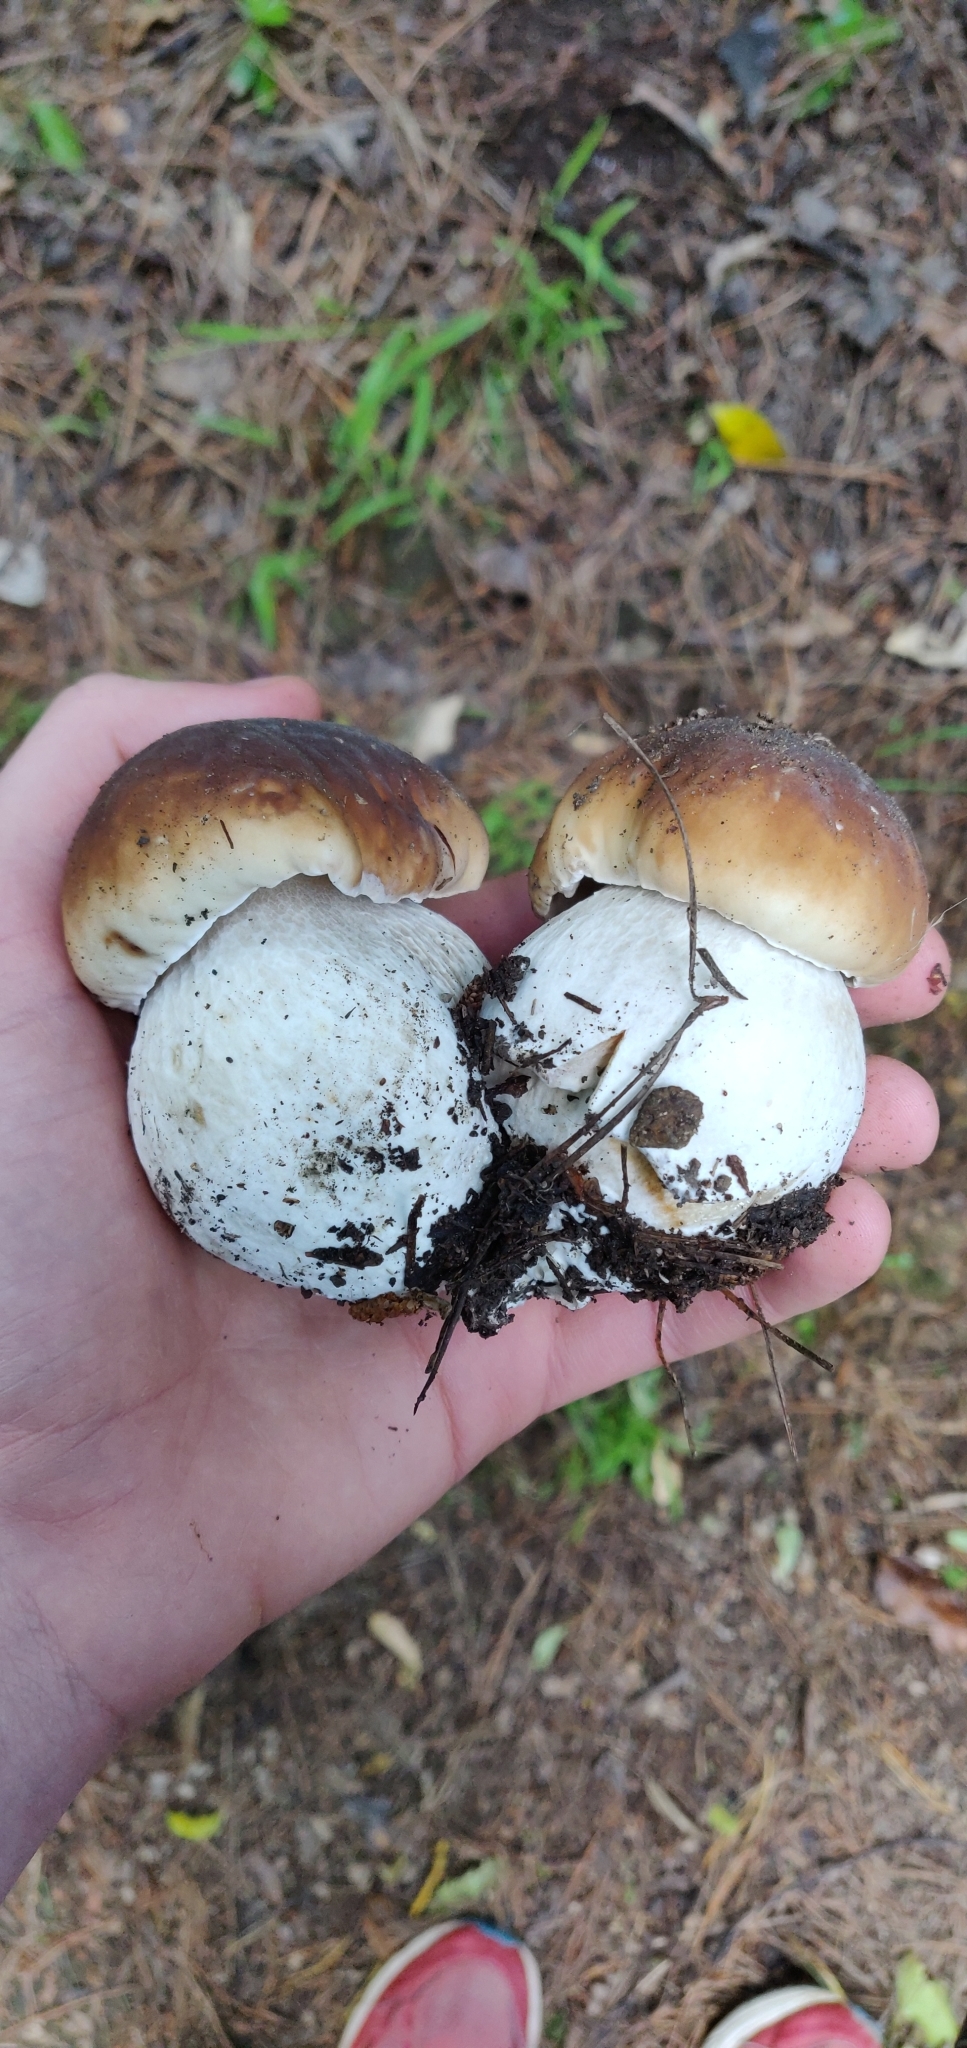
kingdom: Fungi
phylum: Basidiomycota
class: Agaricomycetes
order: Boletales
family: Boletaceae
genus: Boletus
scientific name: Boletus edulis
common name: Cep
